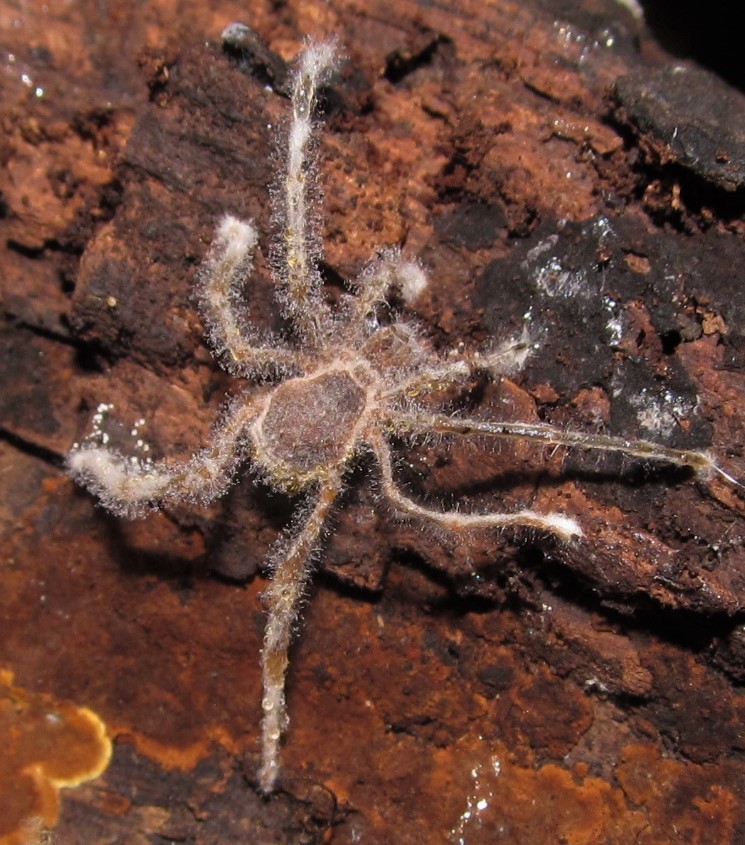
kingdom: Animalia
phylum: Arthropoda
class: Arachnida
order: Opiliones
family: Cosmetidae
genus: Libitioides
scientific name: Libitioides sayi
